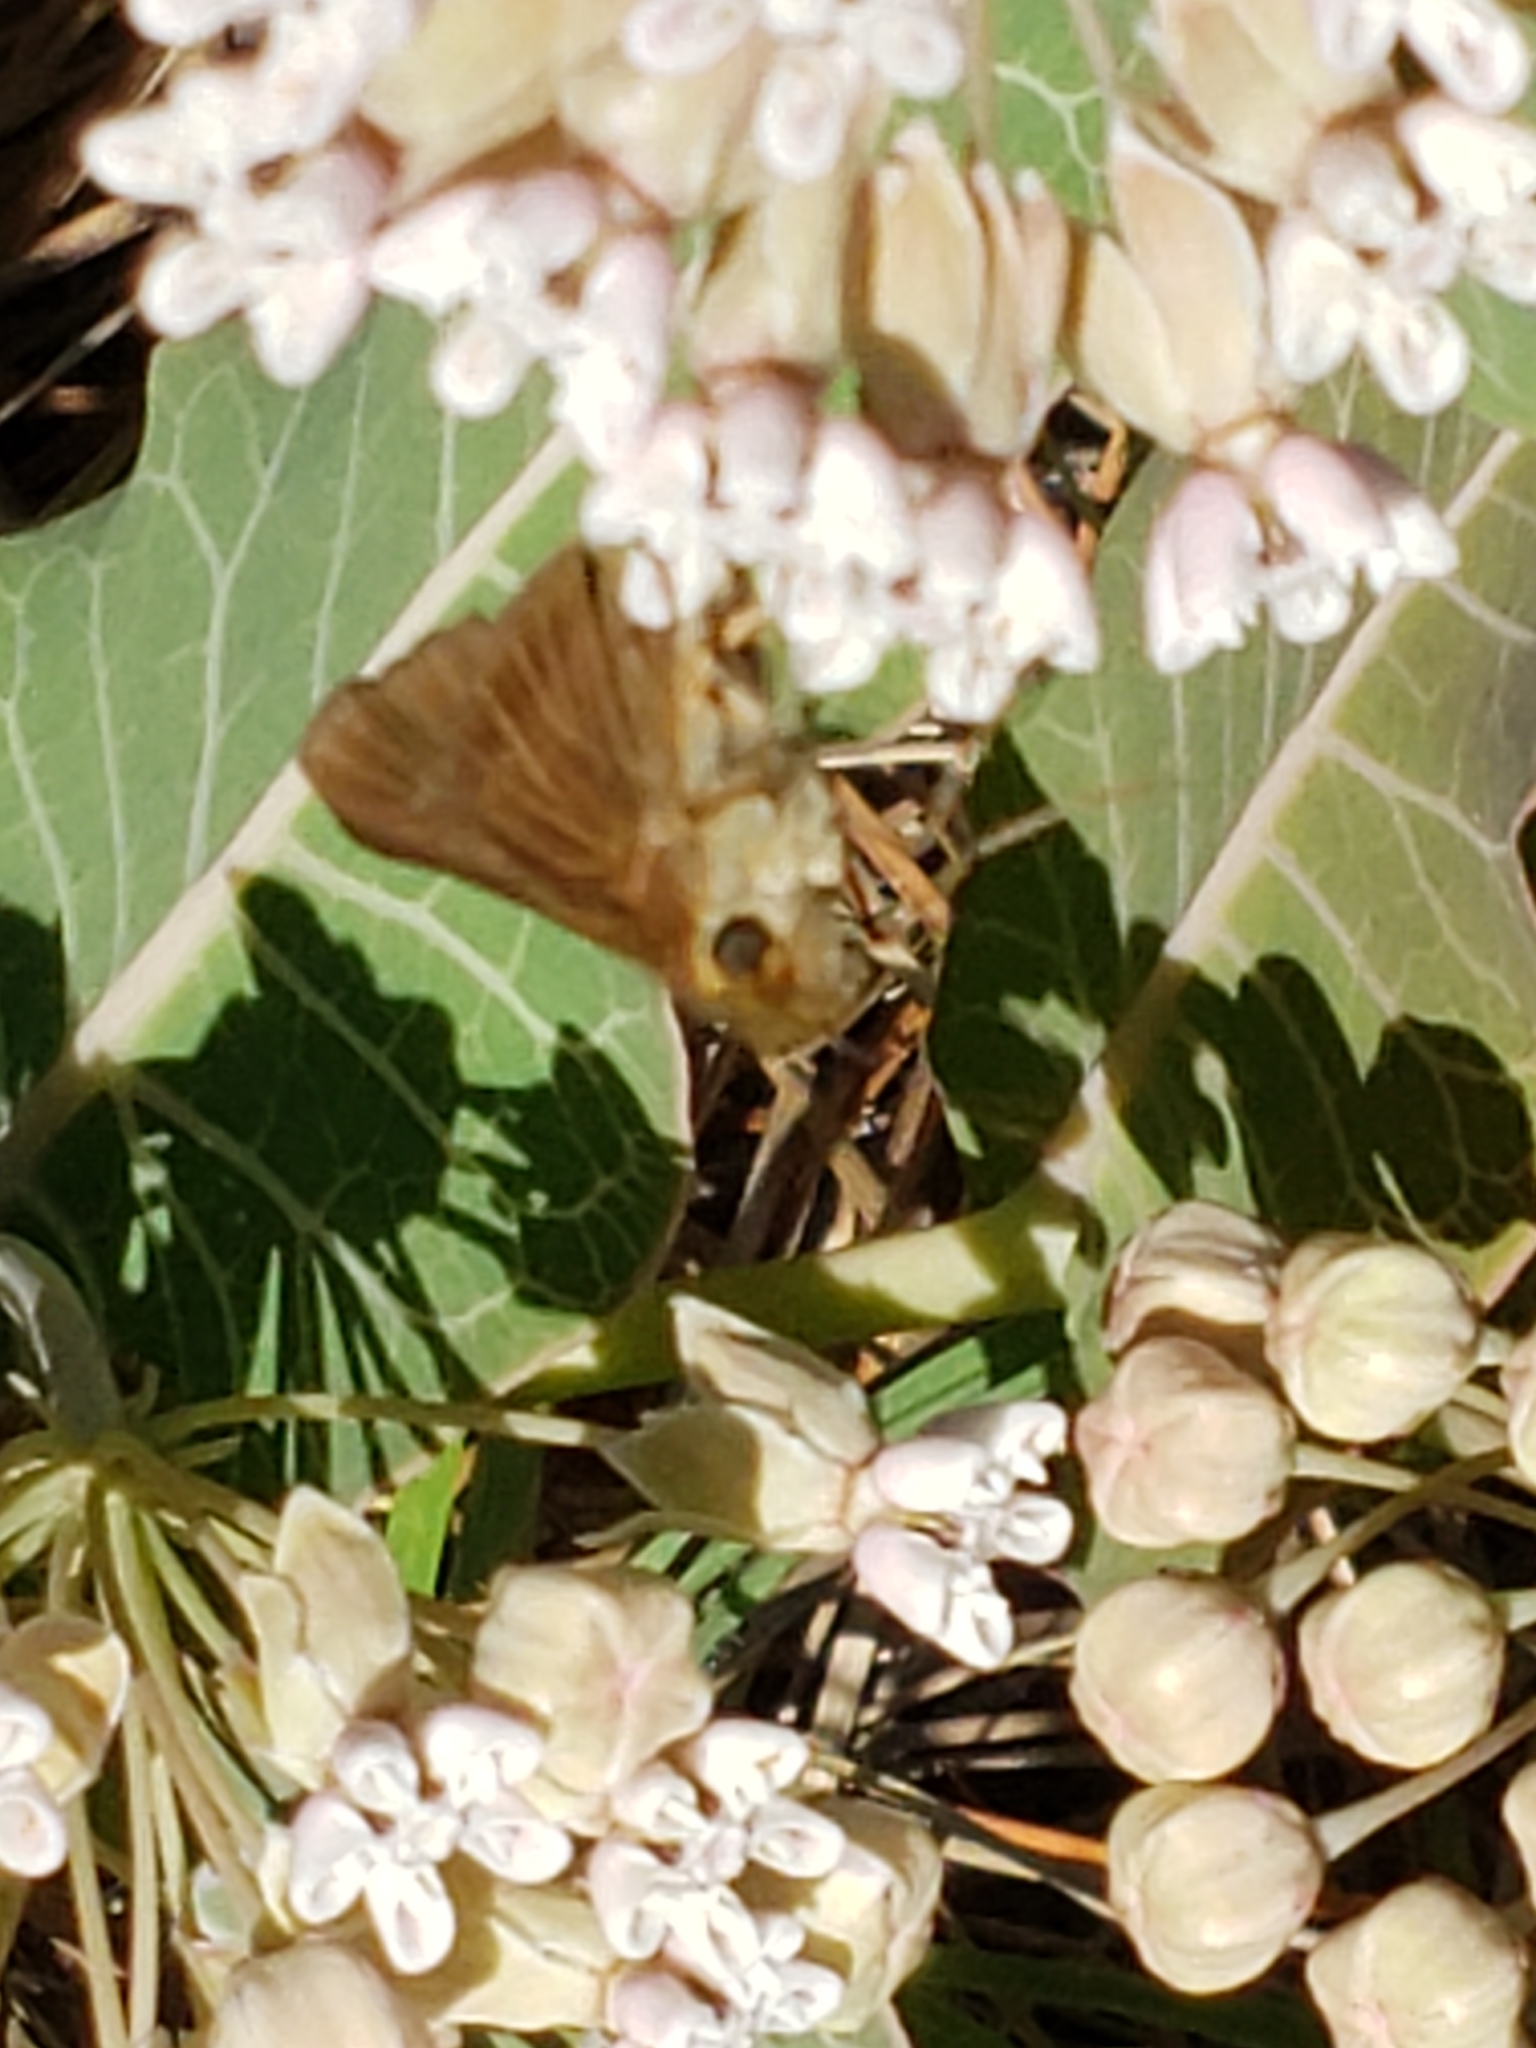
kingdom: Animalia
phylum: Arthropoda
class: Insecta
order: Lepidoptera
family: Hesperiidae
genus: Panoquina
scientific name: Panoquina ocola
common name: Ocola skipper
